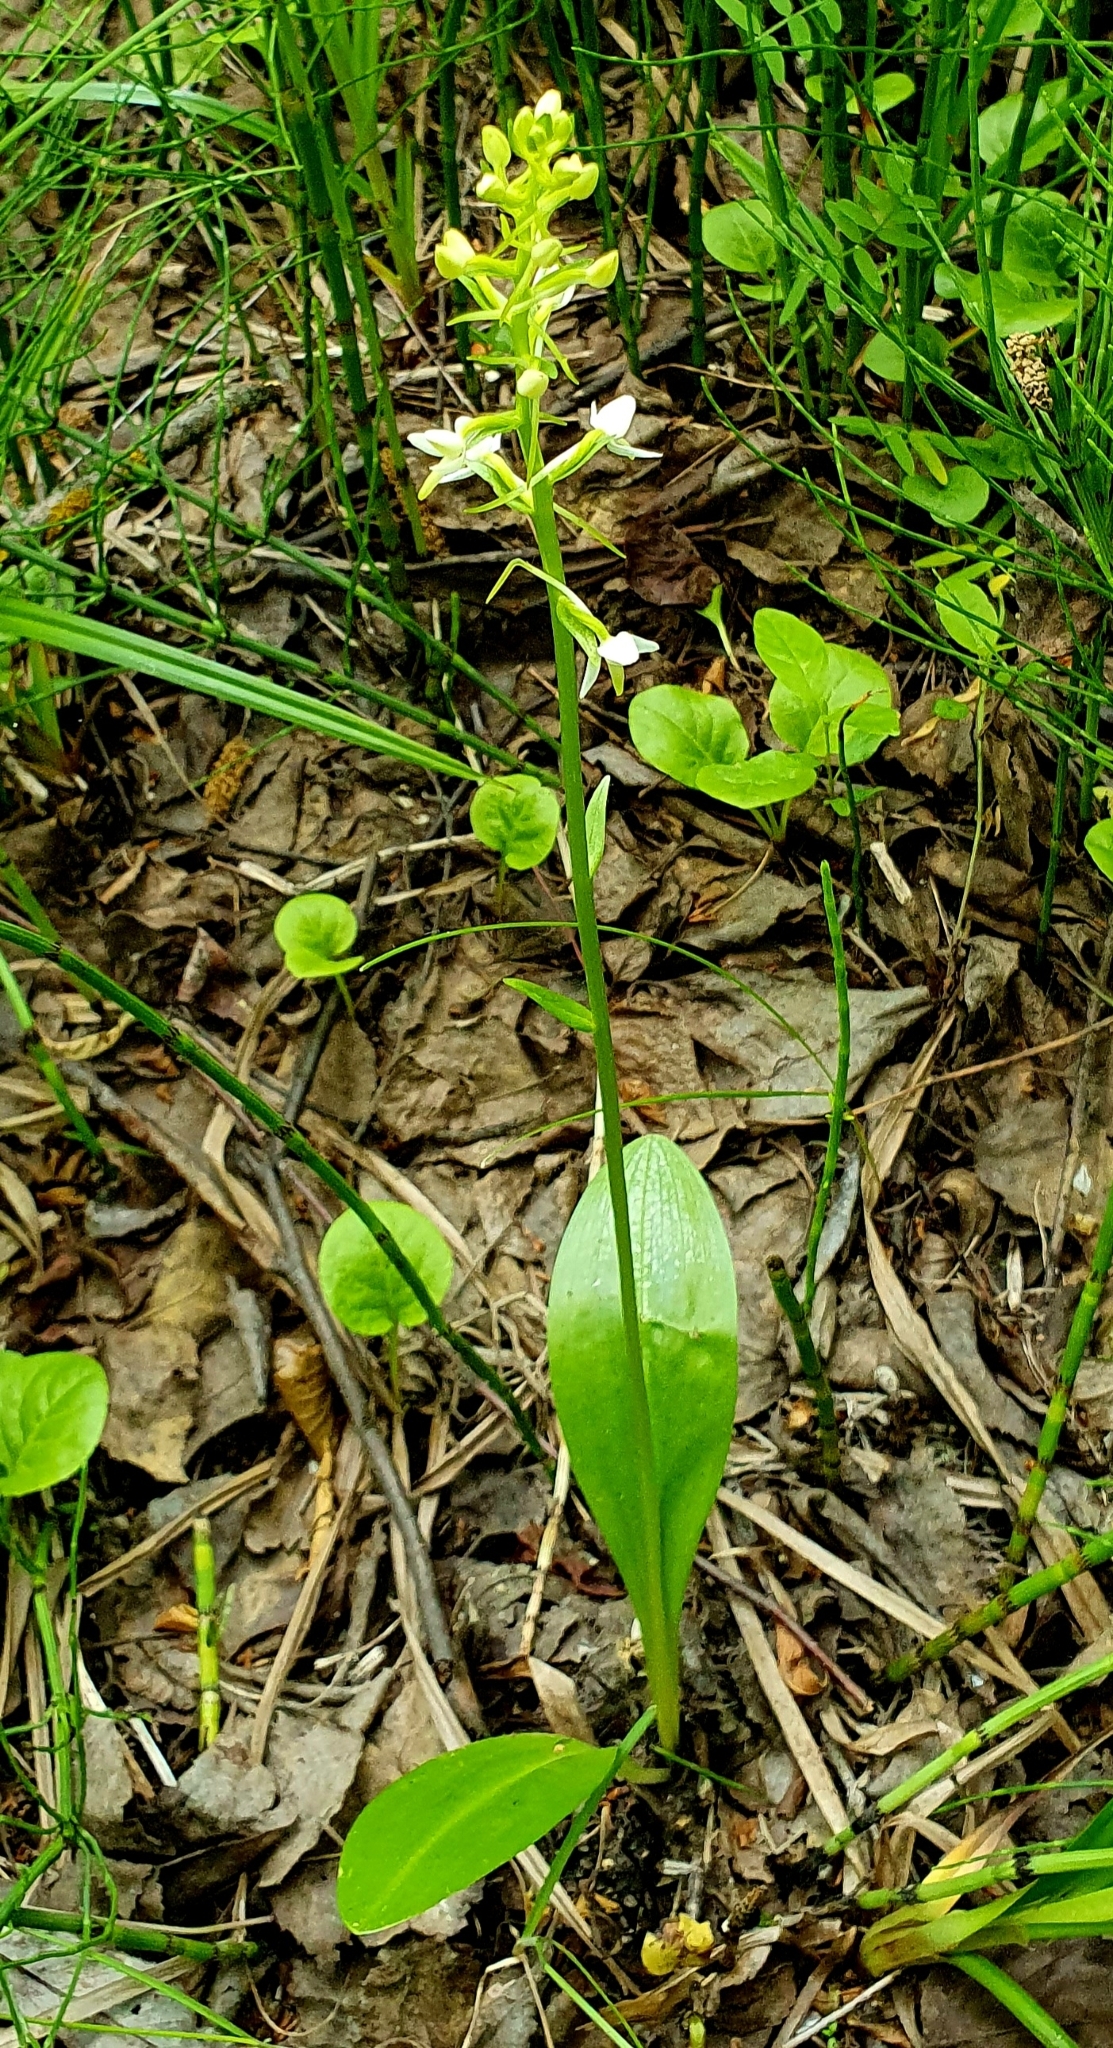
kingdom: Plantae
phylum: Tracheophyta
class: Liliopsida
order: Asparagales
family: Orchidaceae
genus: Platanthera
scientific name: Platanthera bifolia
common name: Lesser butterfly-orchid
